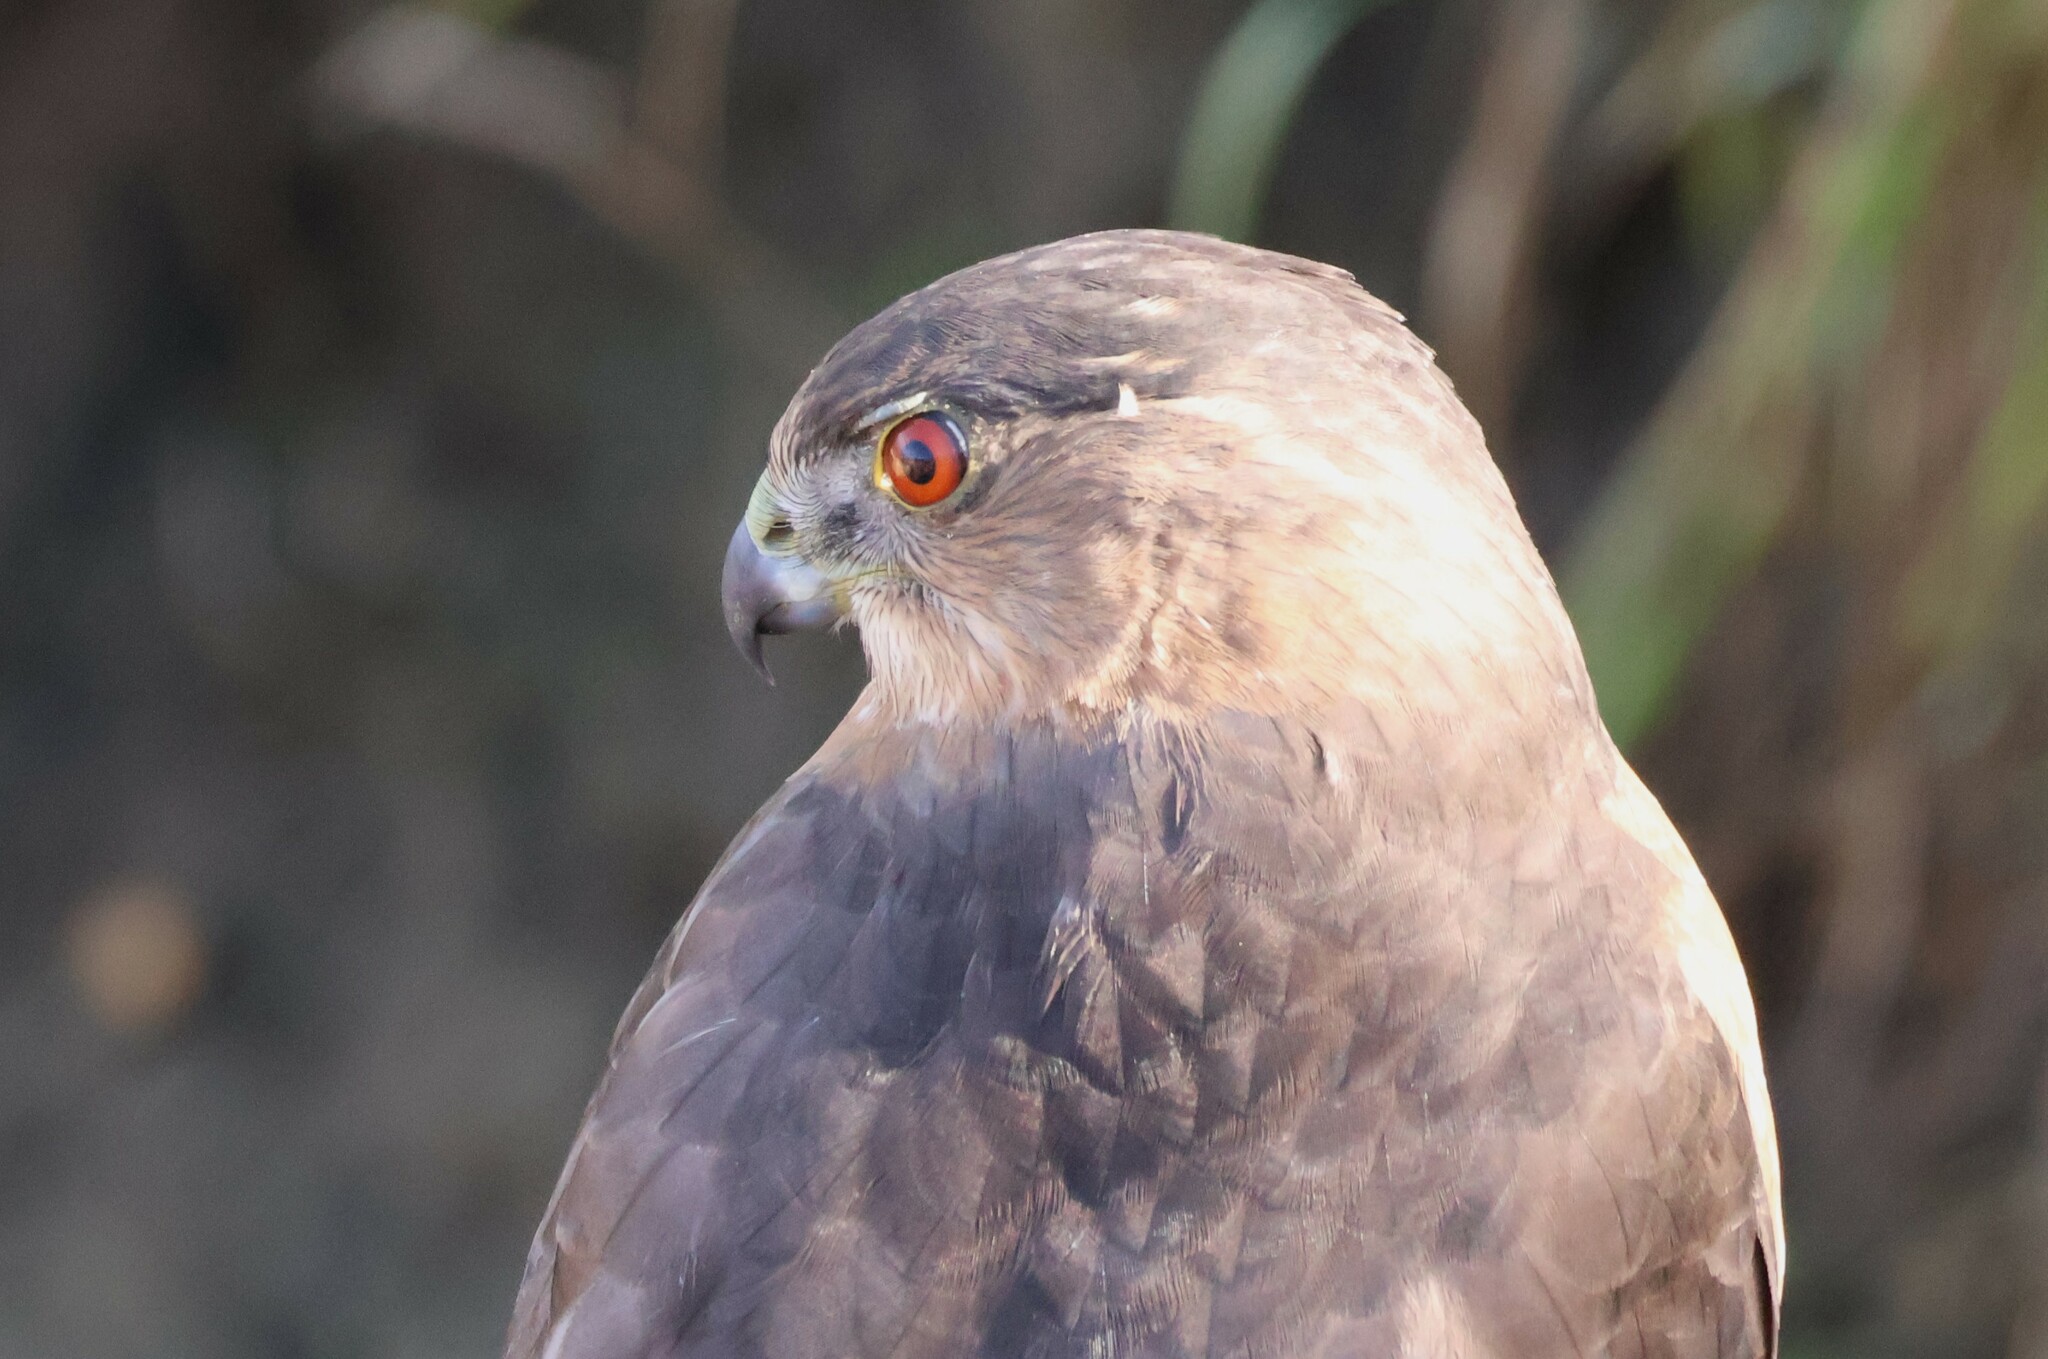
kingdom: Animalia
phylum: Chordata
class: Aves
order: Accipitriformes
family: Accipitridae
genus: Accipiter
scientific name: Accipiter cooperii
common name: Cooper's hawk
